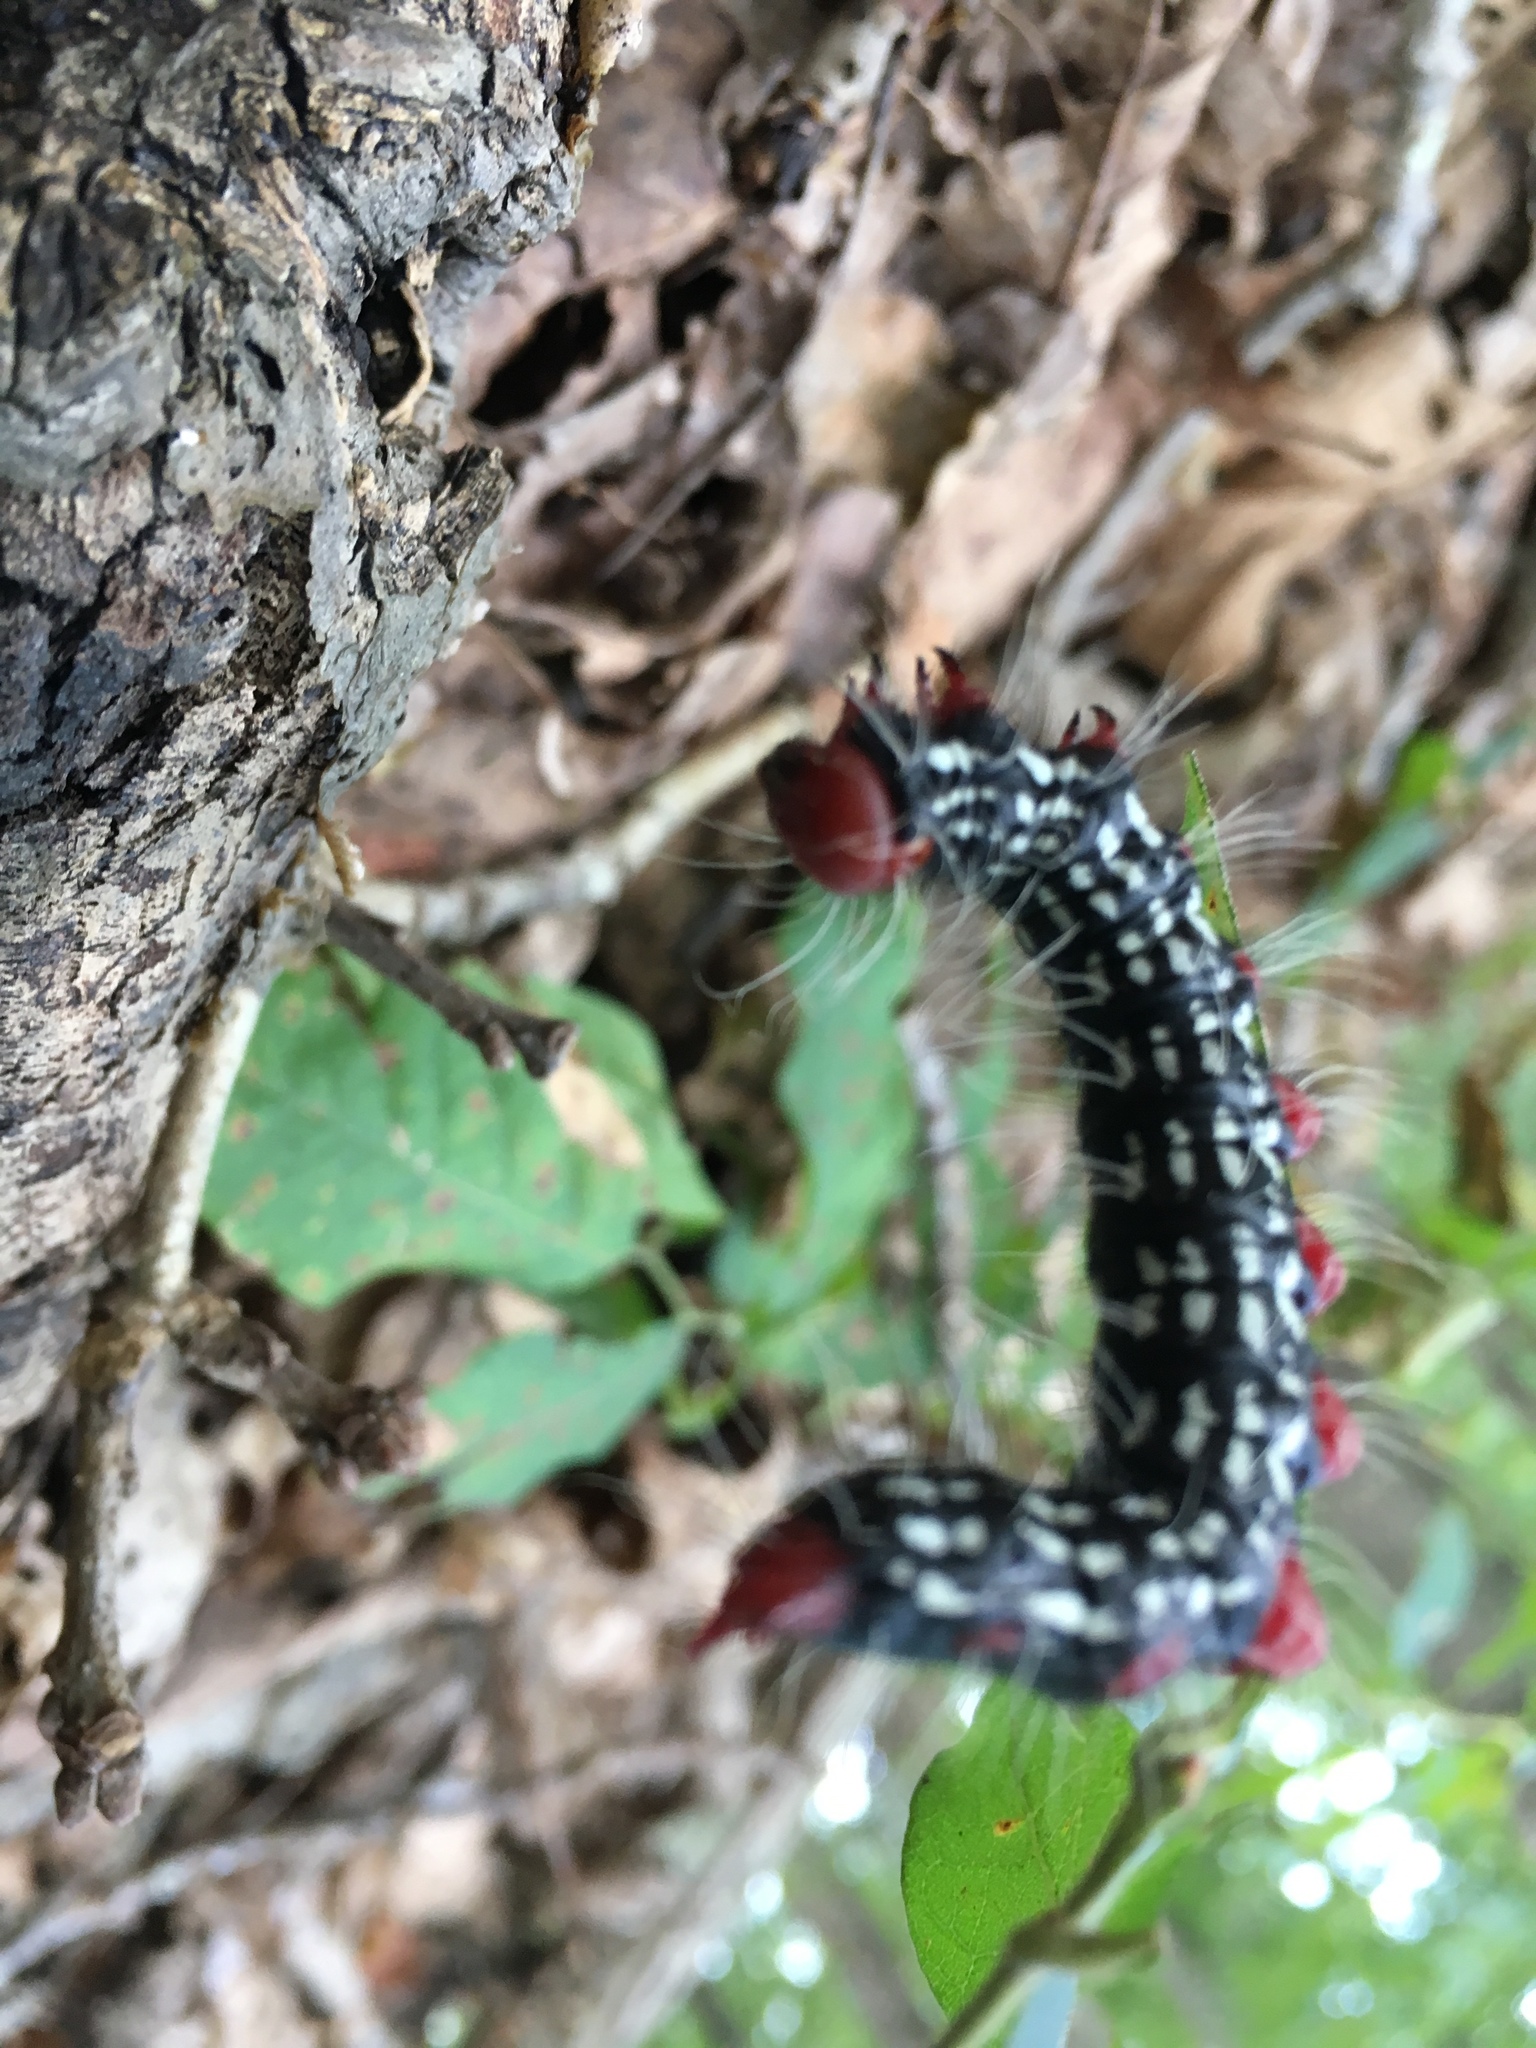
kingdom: Animalia
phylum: Arthropoda
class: Insecta
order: Lepidoptera
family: Notodontidae
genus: Datana
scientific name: Datana major
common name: Azalea caterpillar
